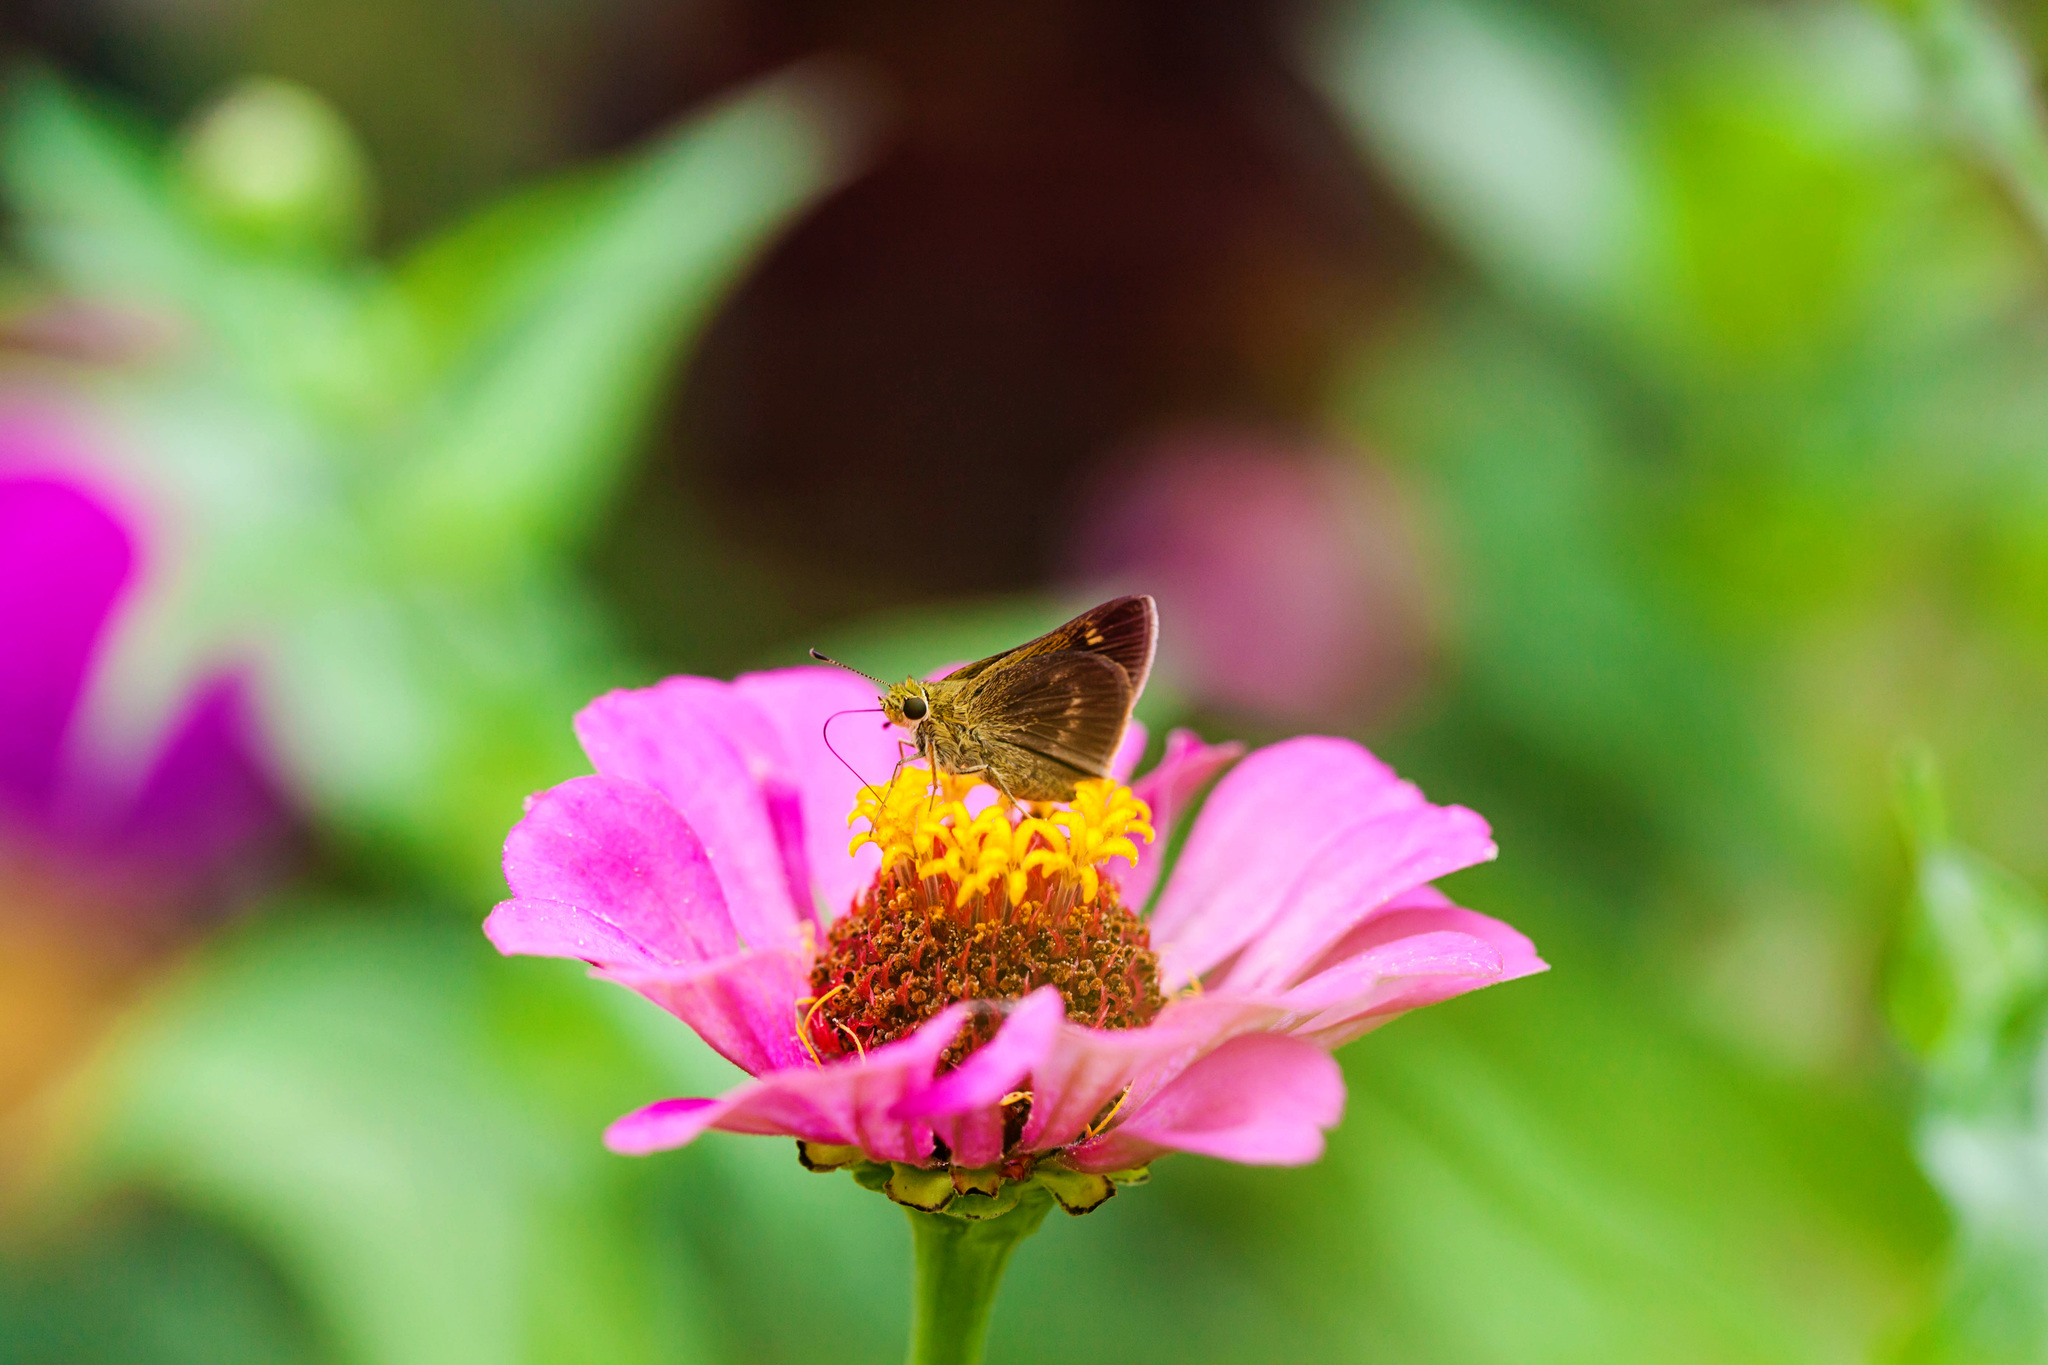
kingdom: Animalia
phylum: Arthropoda
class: Insecta
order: Lepidoptera
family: Hesperiidae
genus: Polites
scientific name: Polites egeremet
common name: Northern broken-dash
